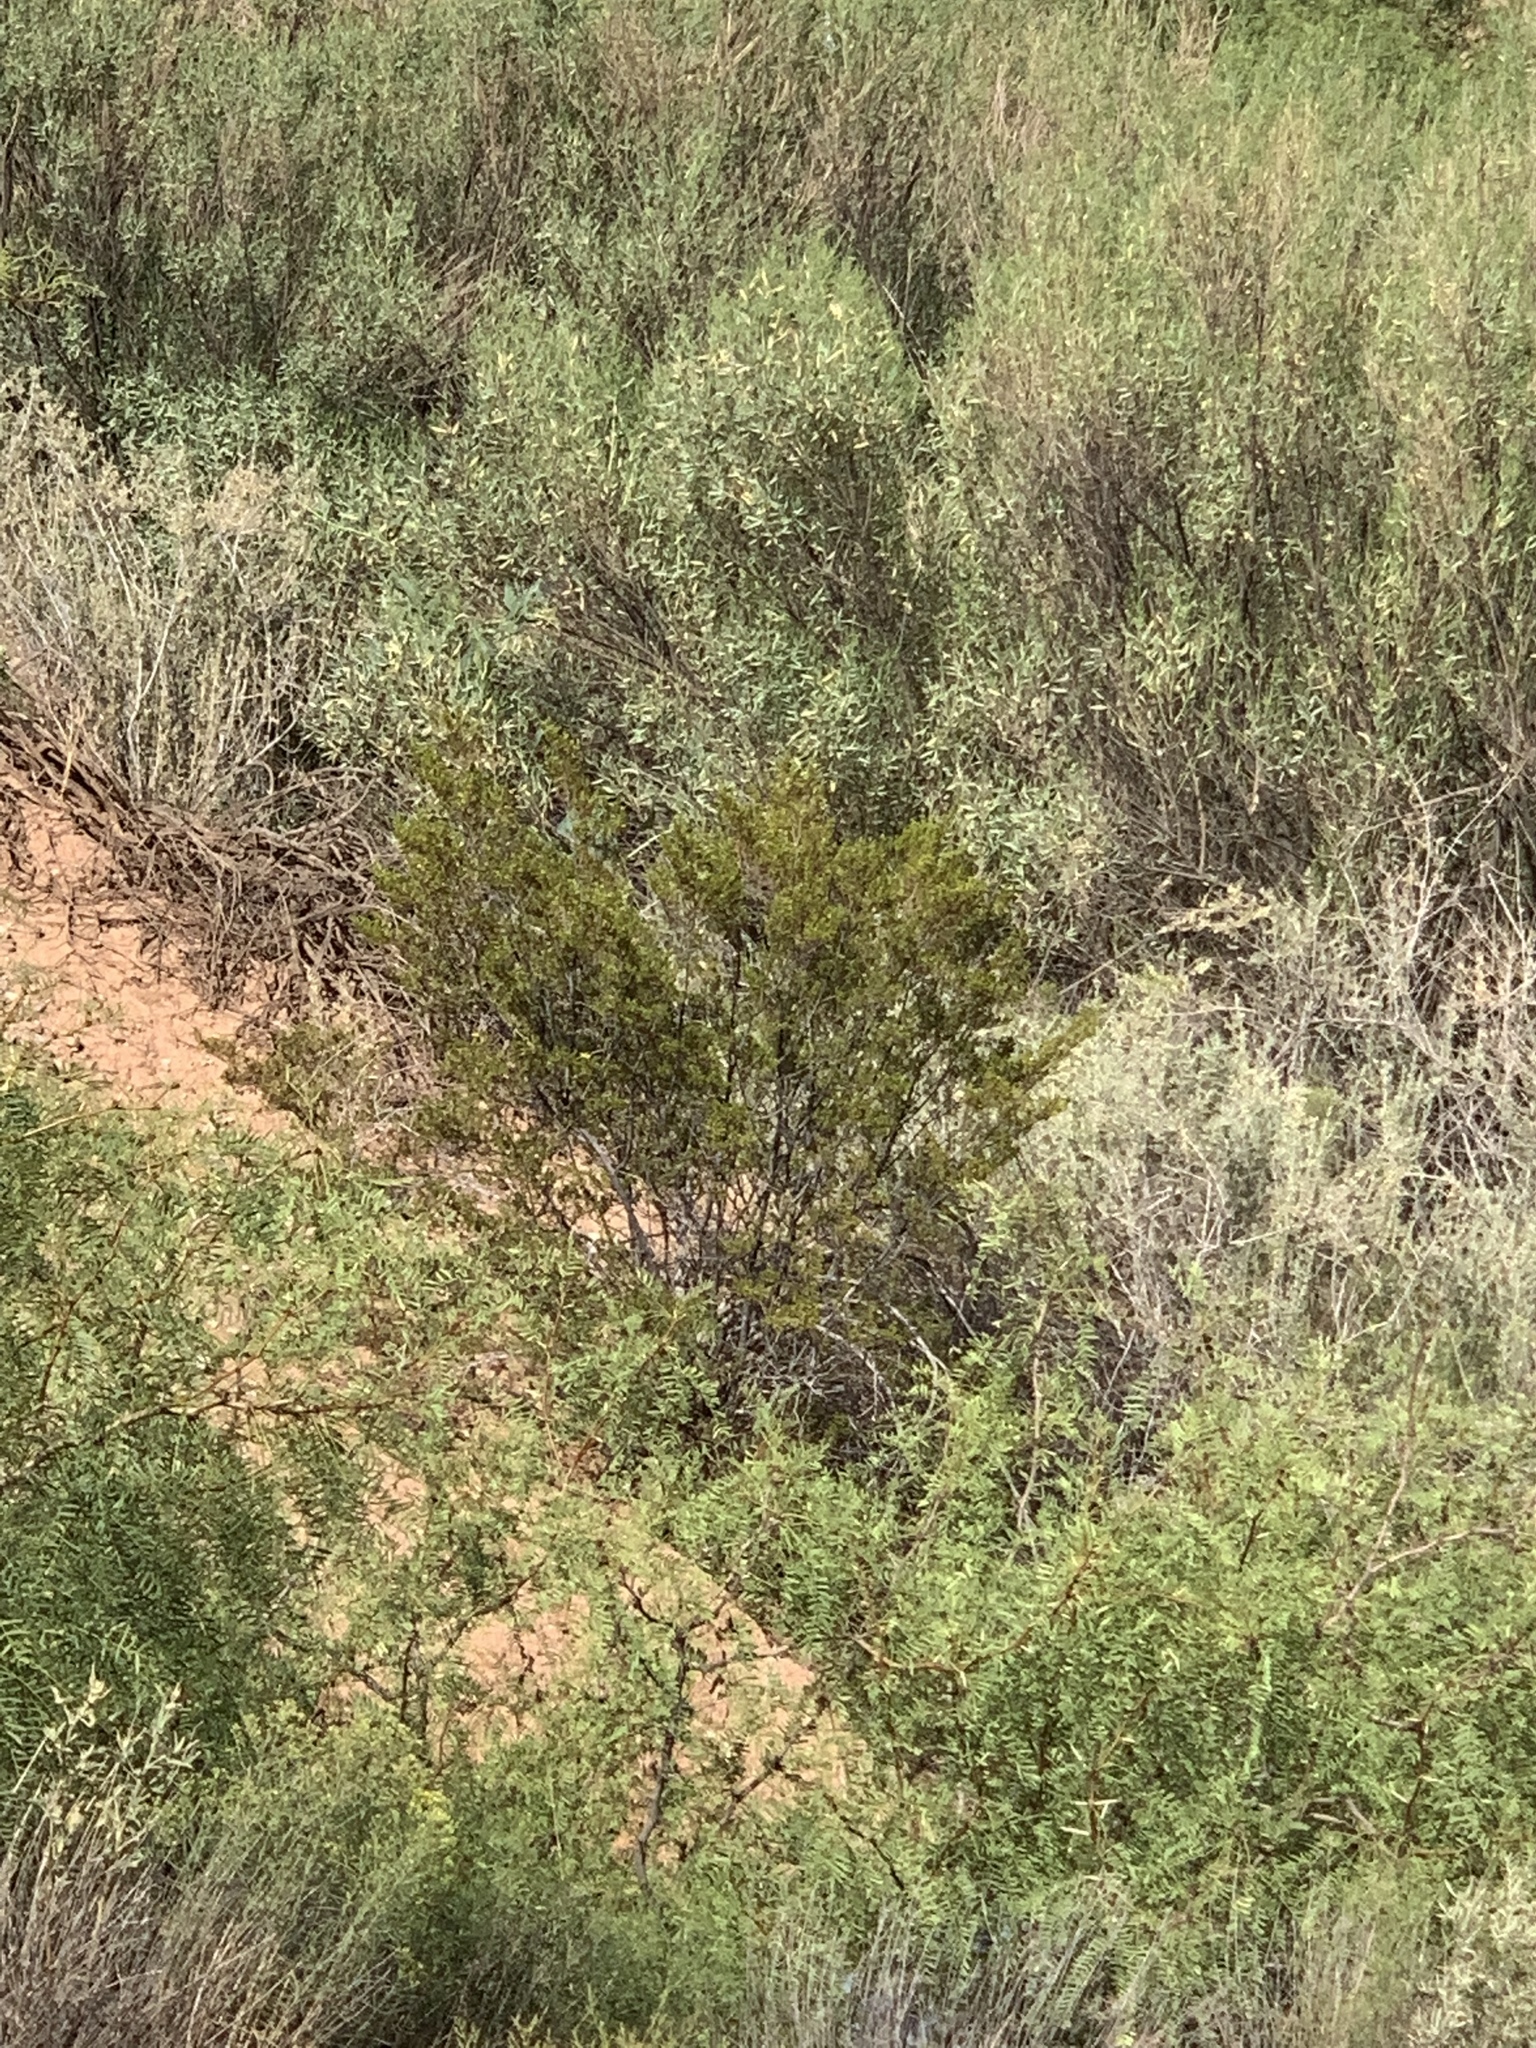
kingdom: Plantae
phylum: Tracheophyta
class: Magnoliopsida
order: Zygophyllales
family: Zygophyllaceae
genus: Larrea
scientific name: Larrea tridentata
